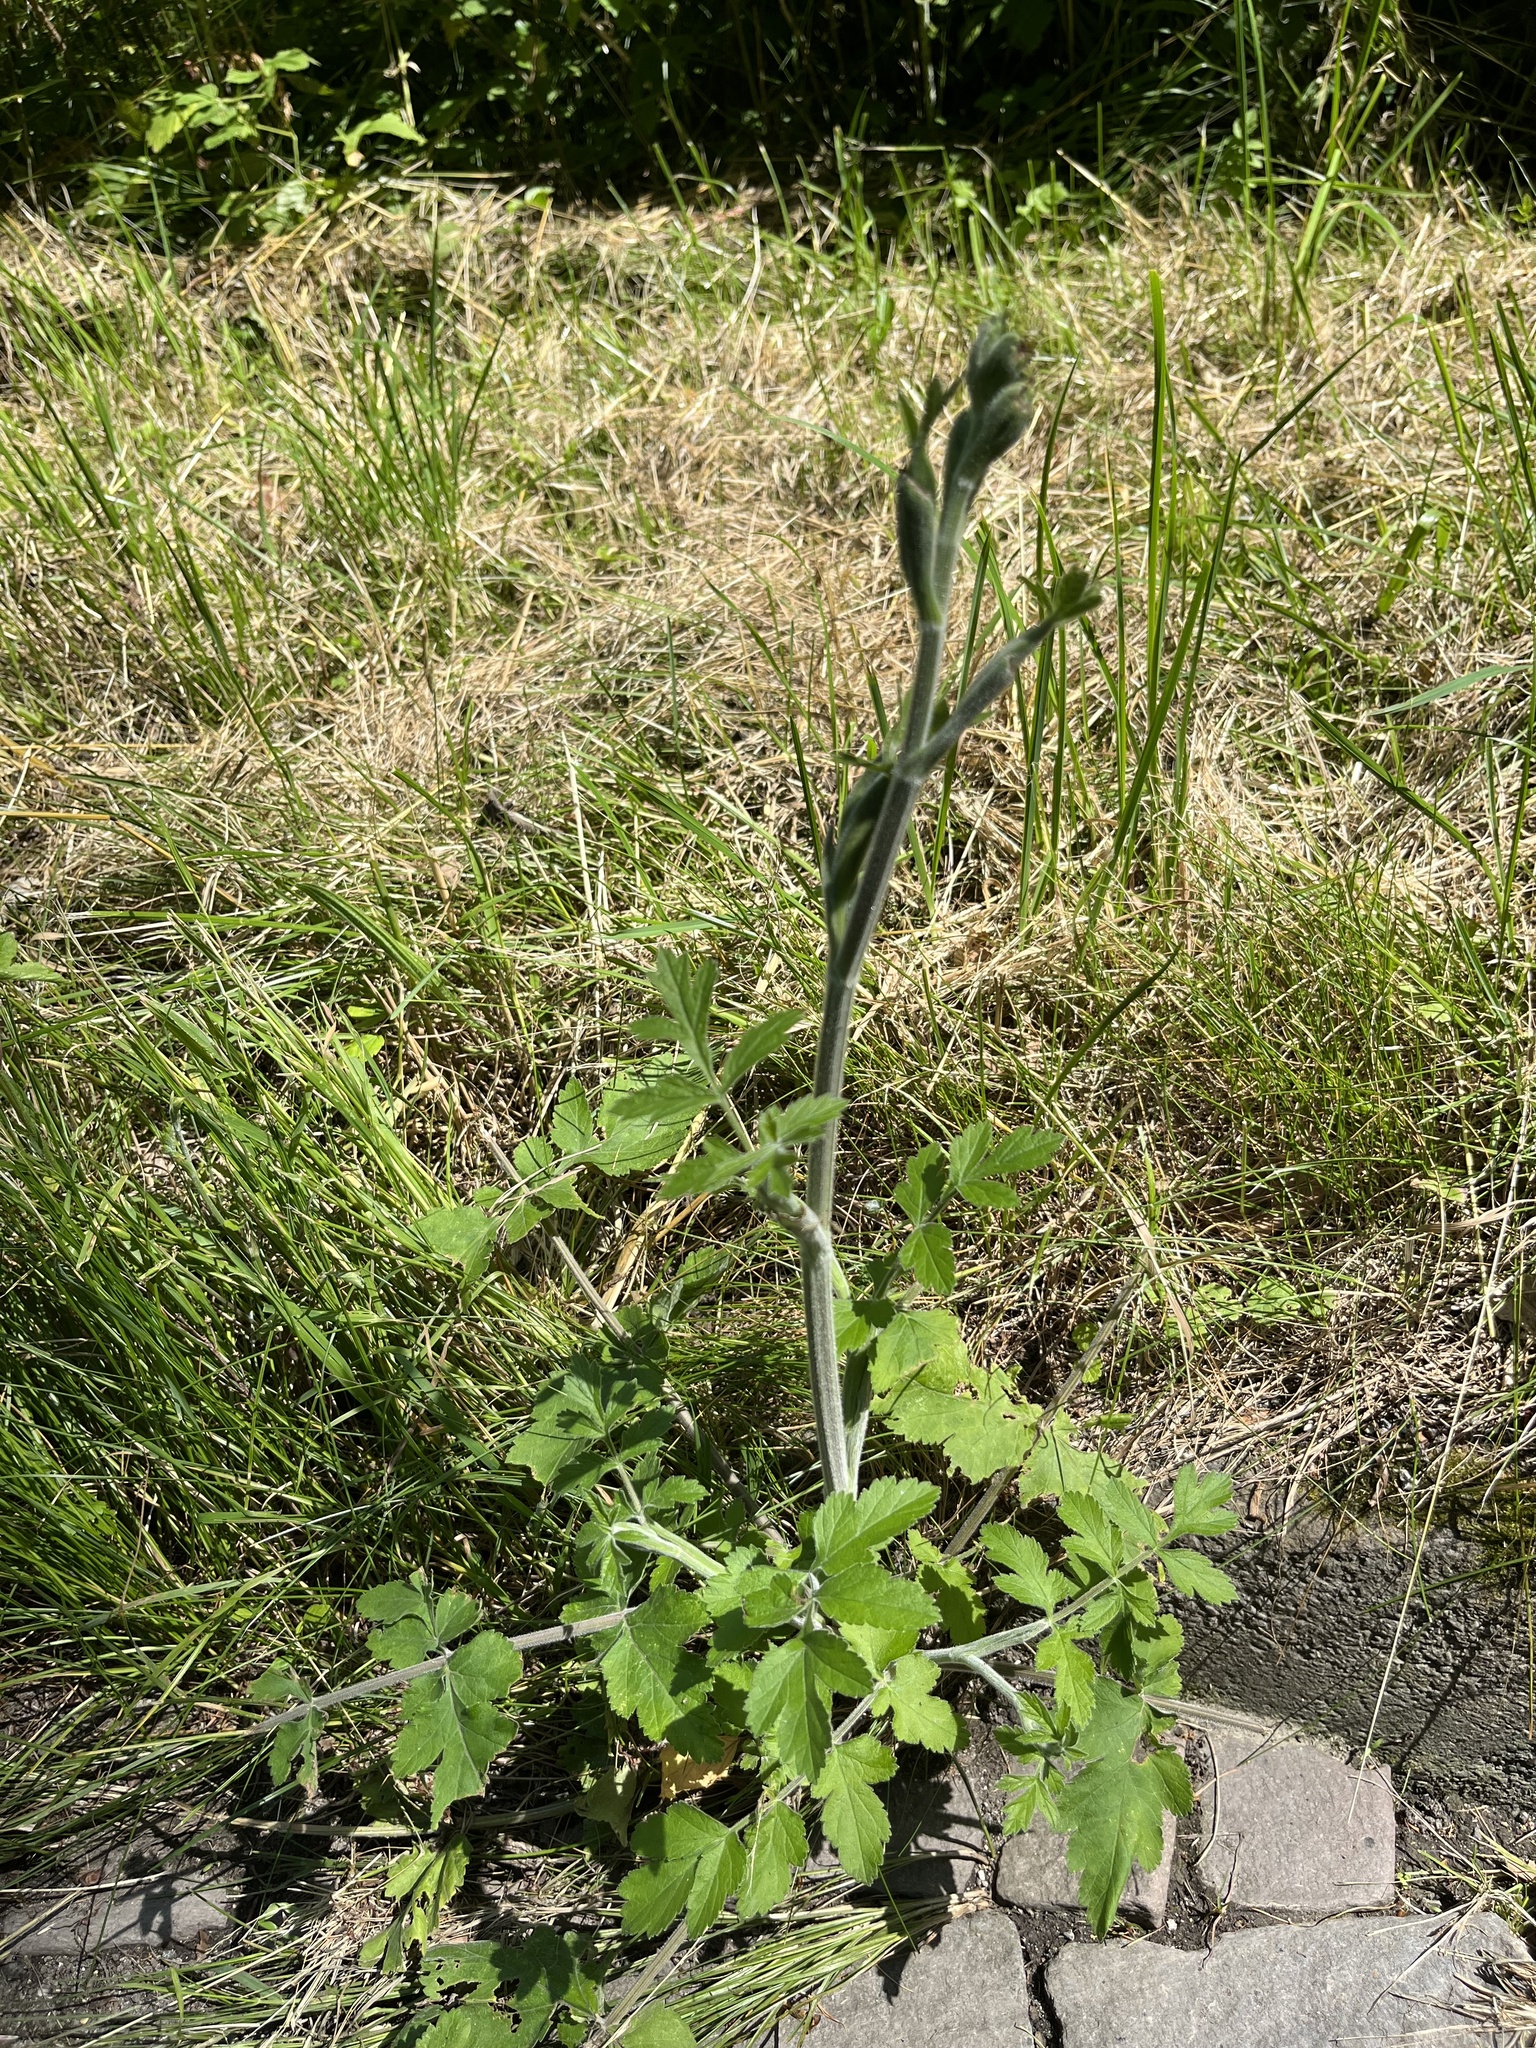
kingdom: Plantae
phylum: Tracheophyta
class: Magnoliopsida
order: Apiales
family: Apiaceae
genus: Pastinaca
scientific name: Pastinaca sativa
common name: Wild parsnip
